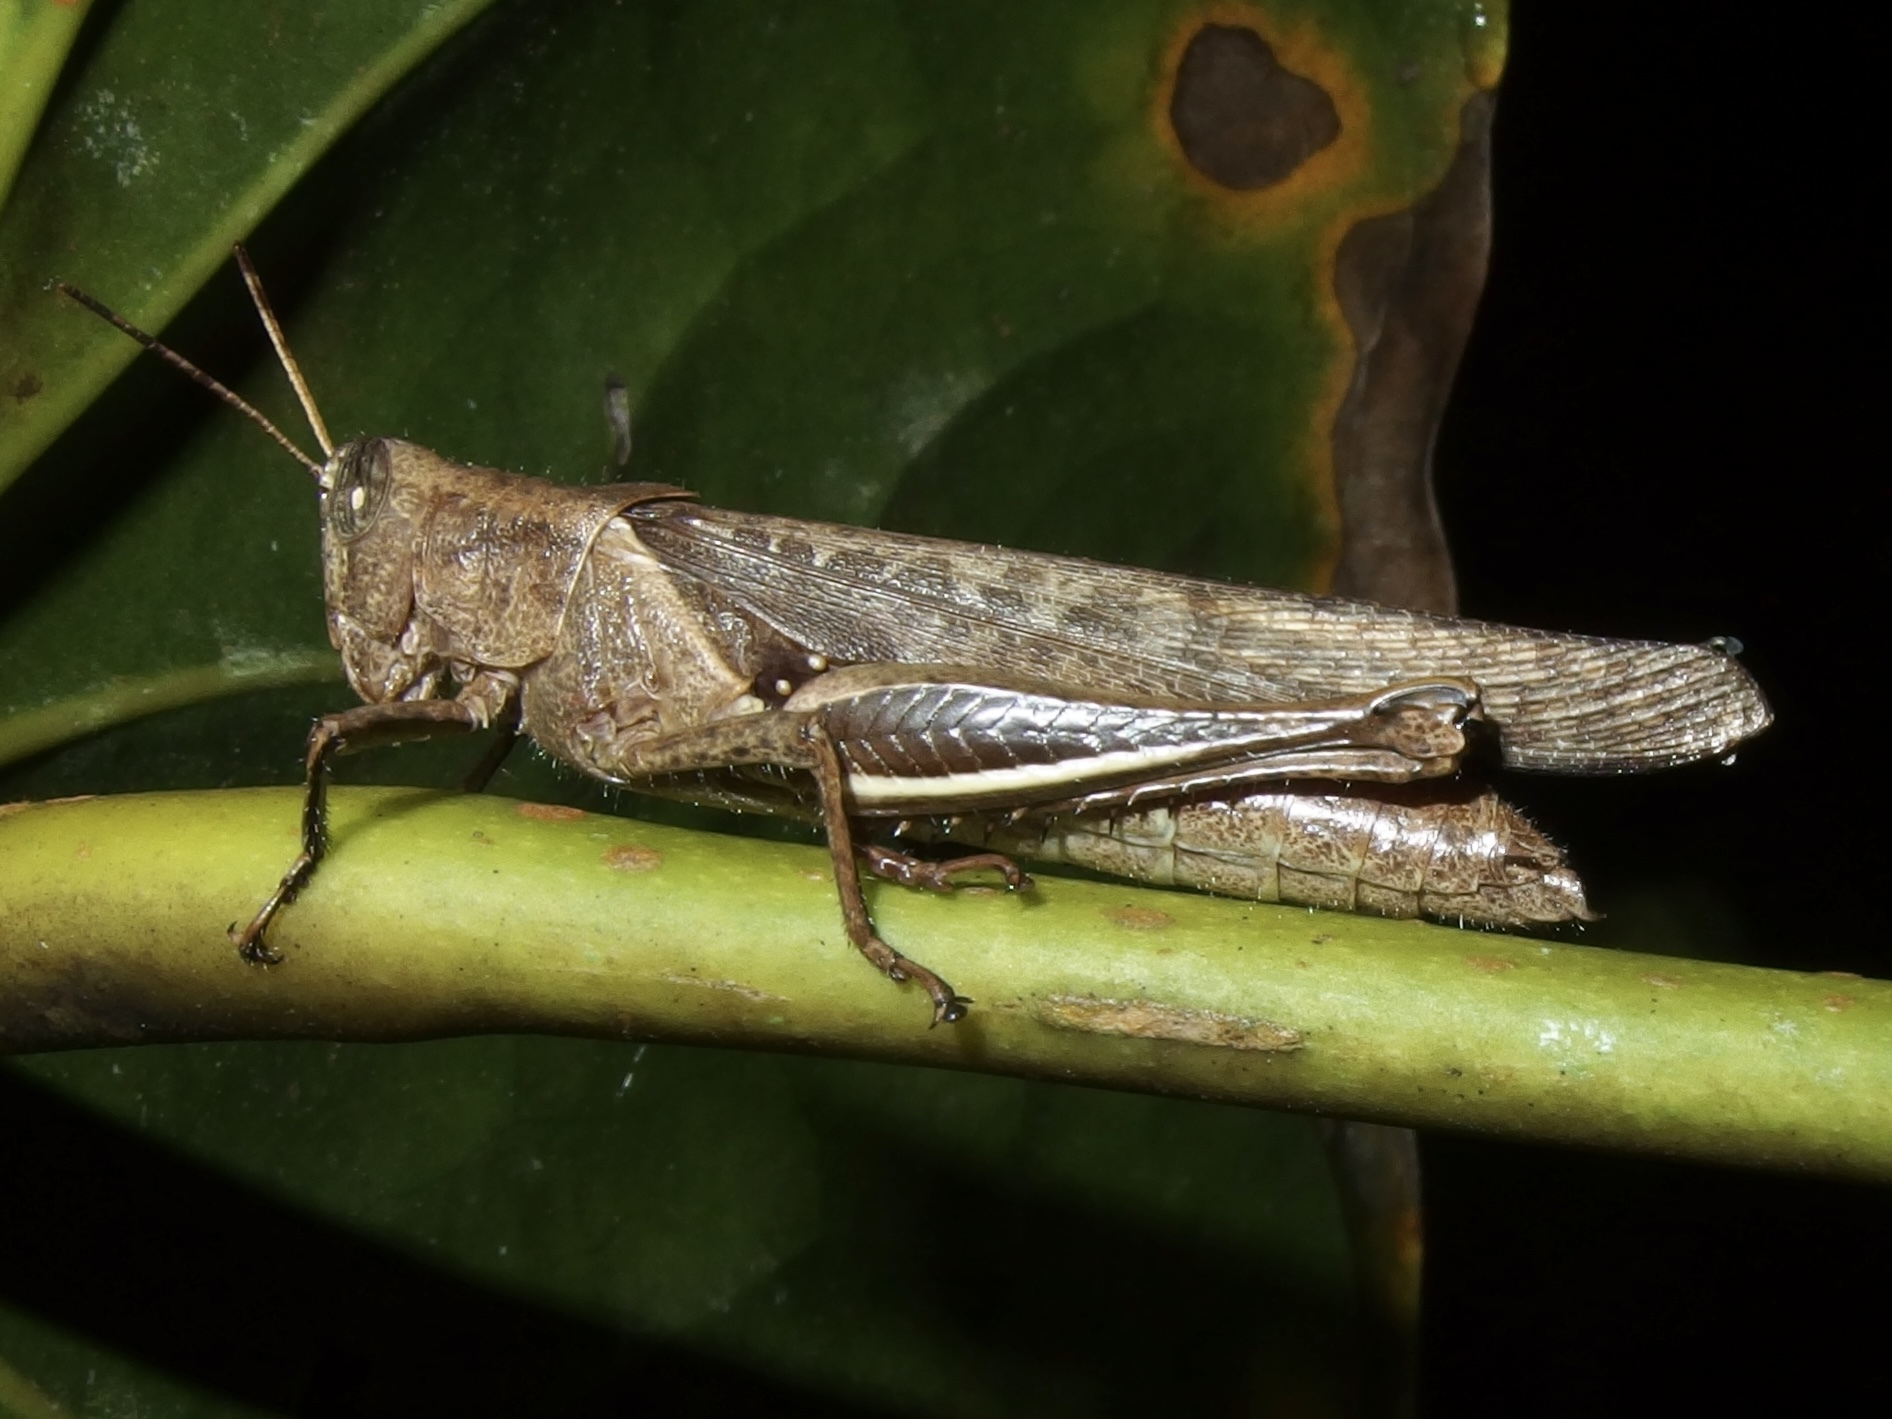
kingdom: Animalia
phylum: Arthropoda
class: Insecta
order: Orthoptera
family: Acrididae
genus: Abracris
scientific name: Abracris flavolineata
